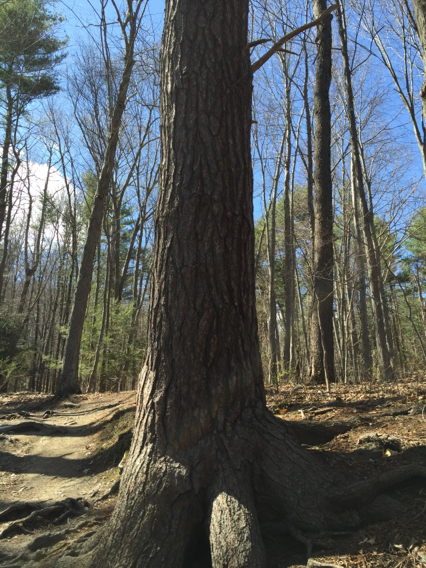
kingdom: Plantae
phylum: Tracheophyta
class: Pinopsida
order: Pinales
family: Pinaceae
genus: Pinus
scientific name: Pinus strobus
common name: Weymouth pine
